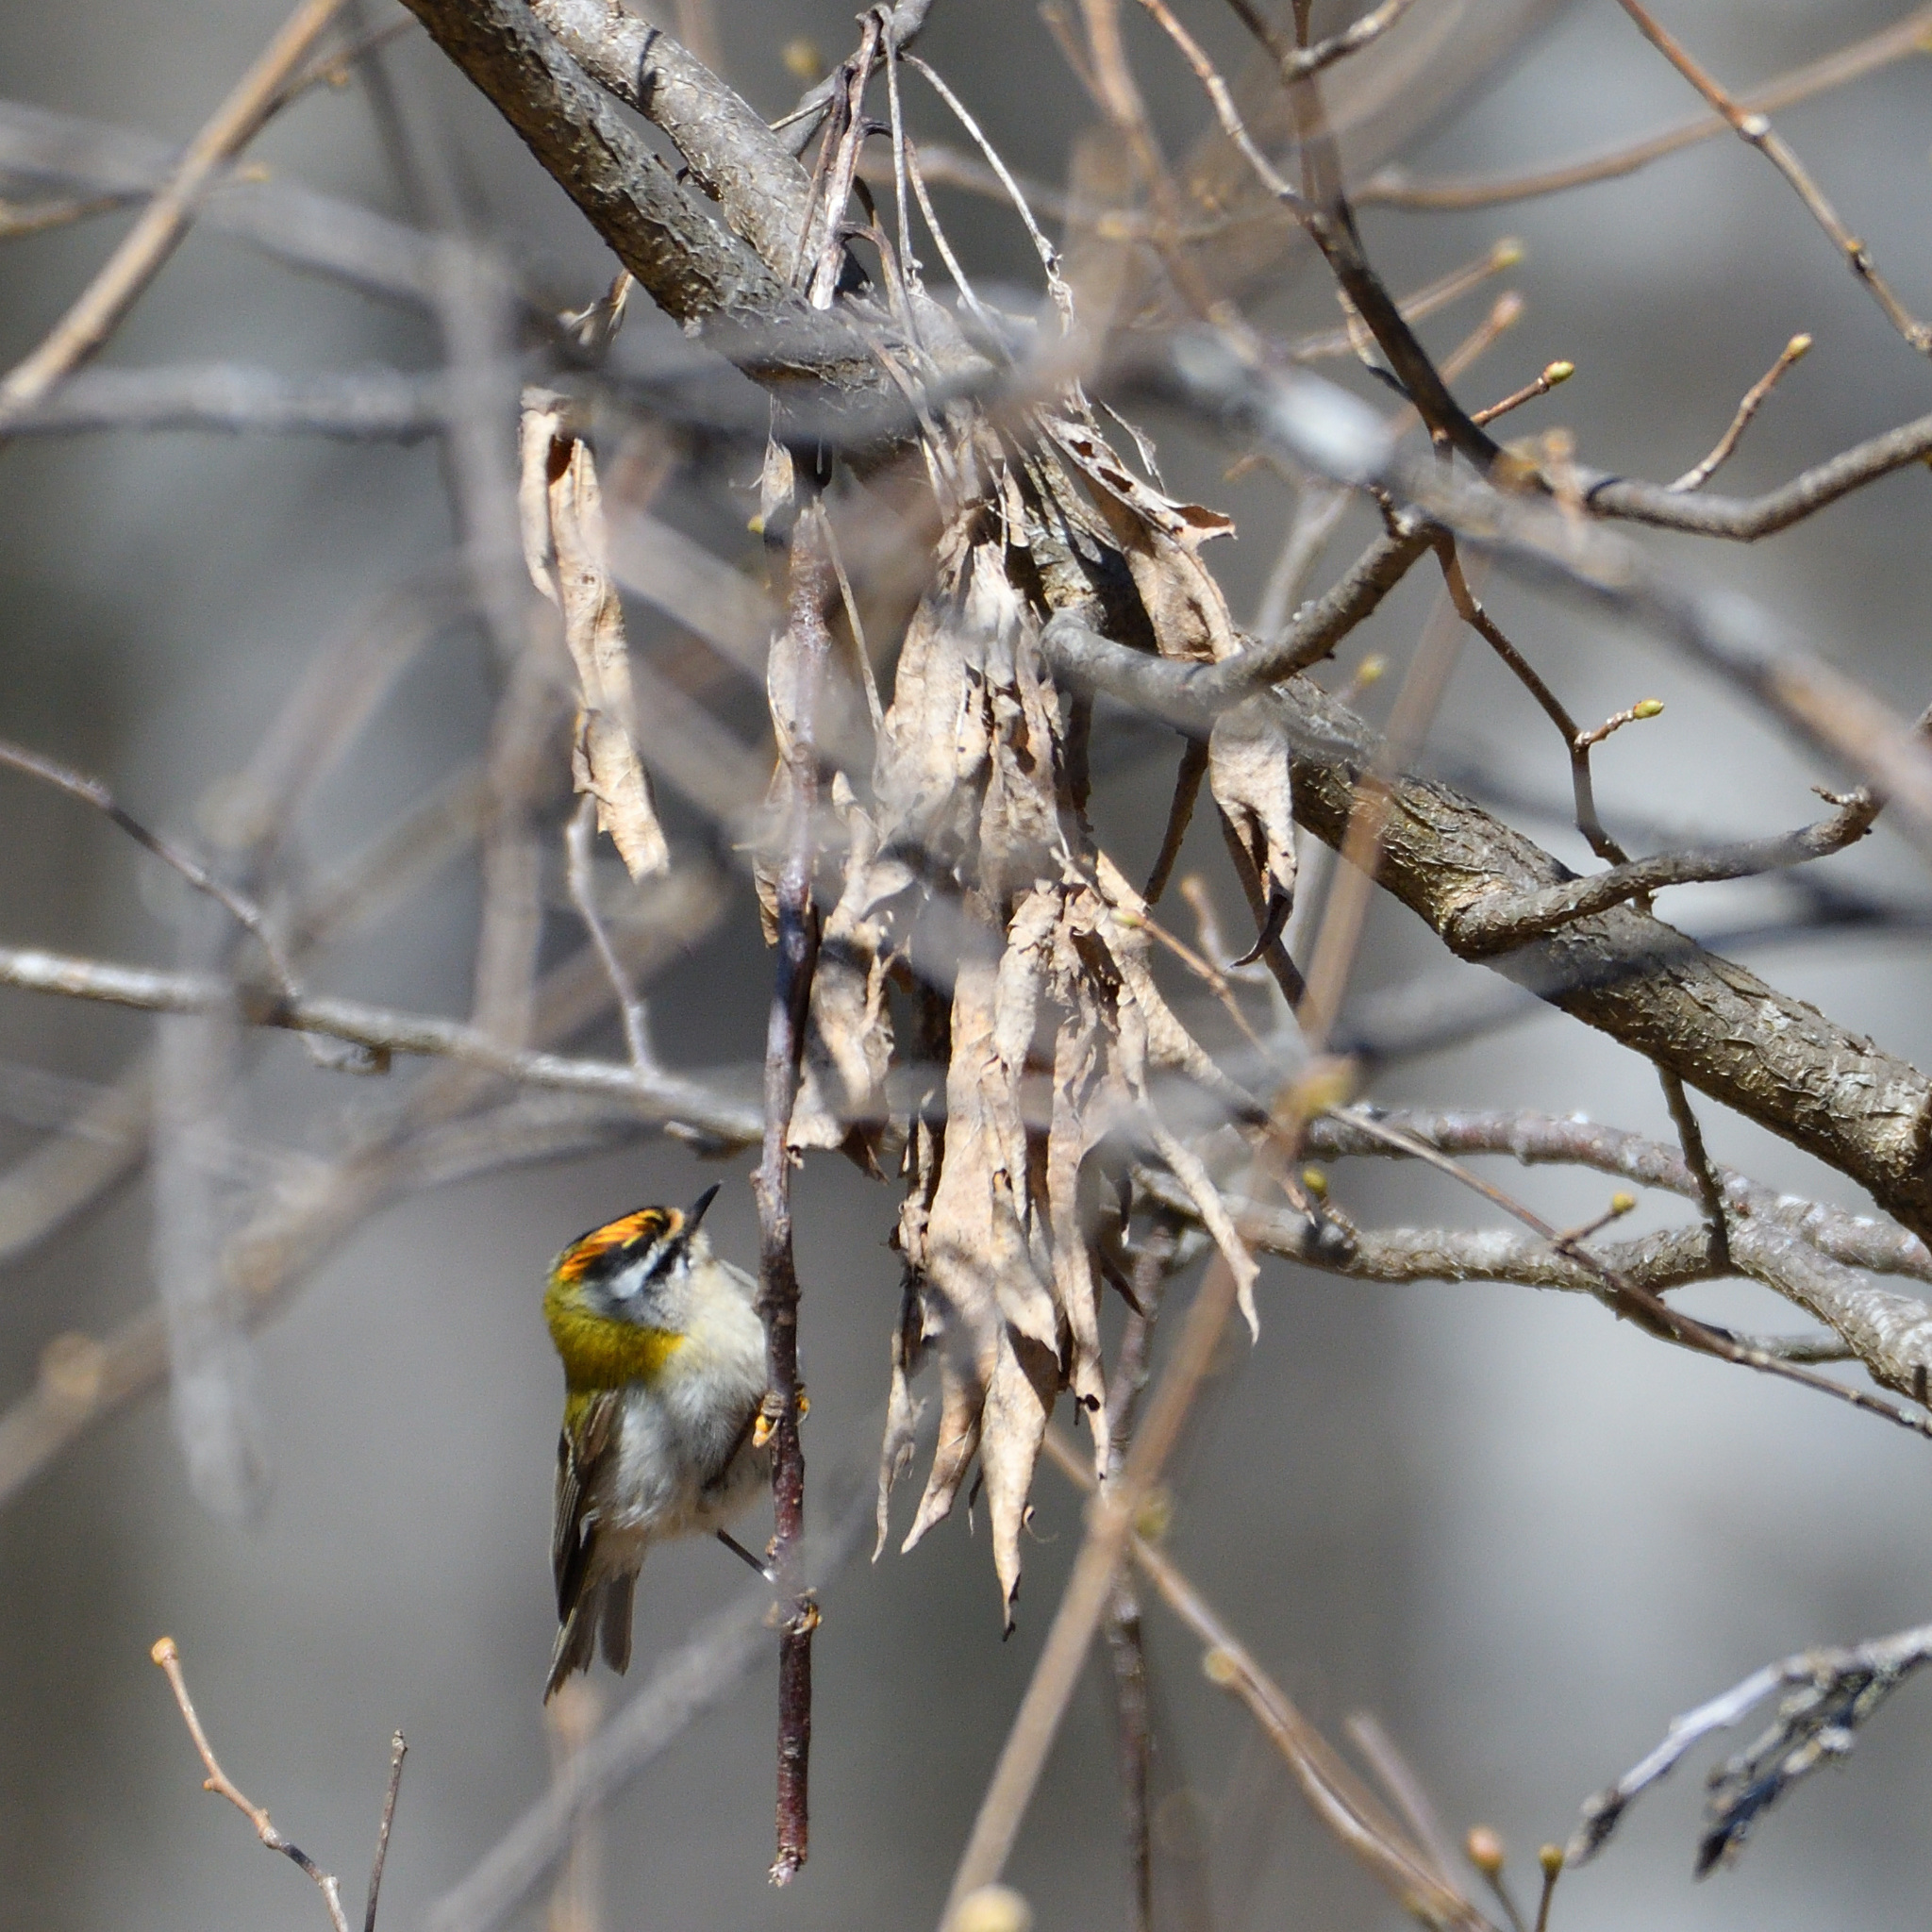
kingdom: Animalia
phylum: Chordata
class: Aves
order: Passeriformes
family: Regulidae
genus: Regulus
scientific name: Regulus ignicapilla
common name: Firecrest
